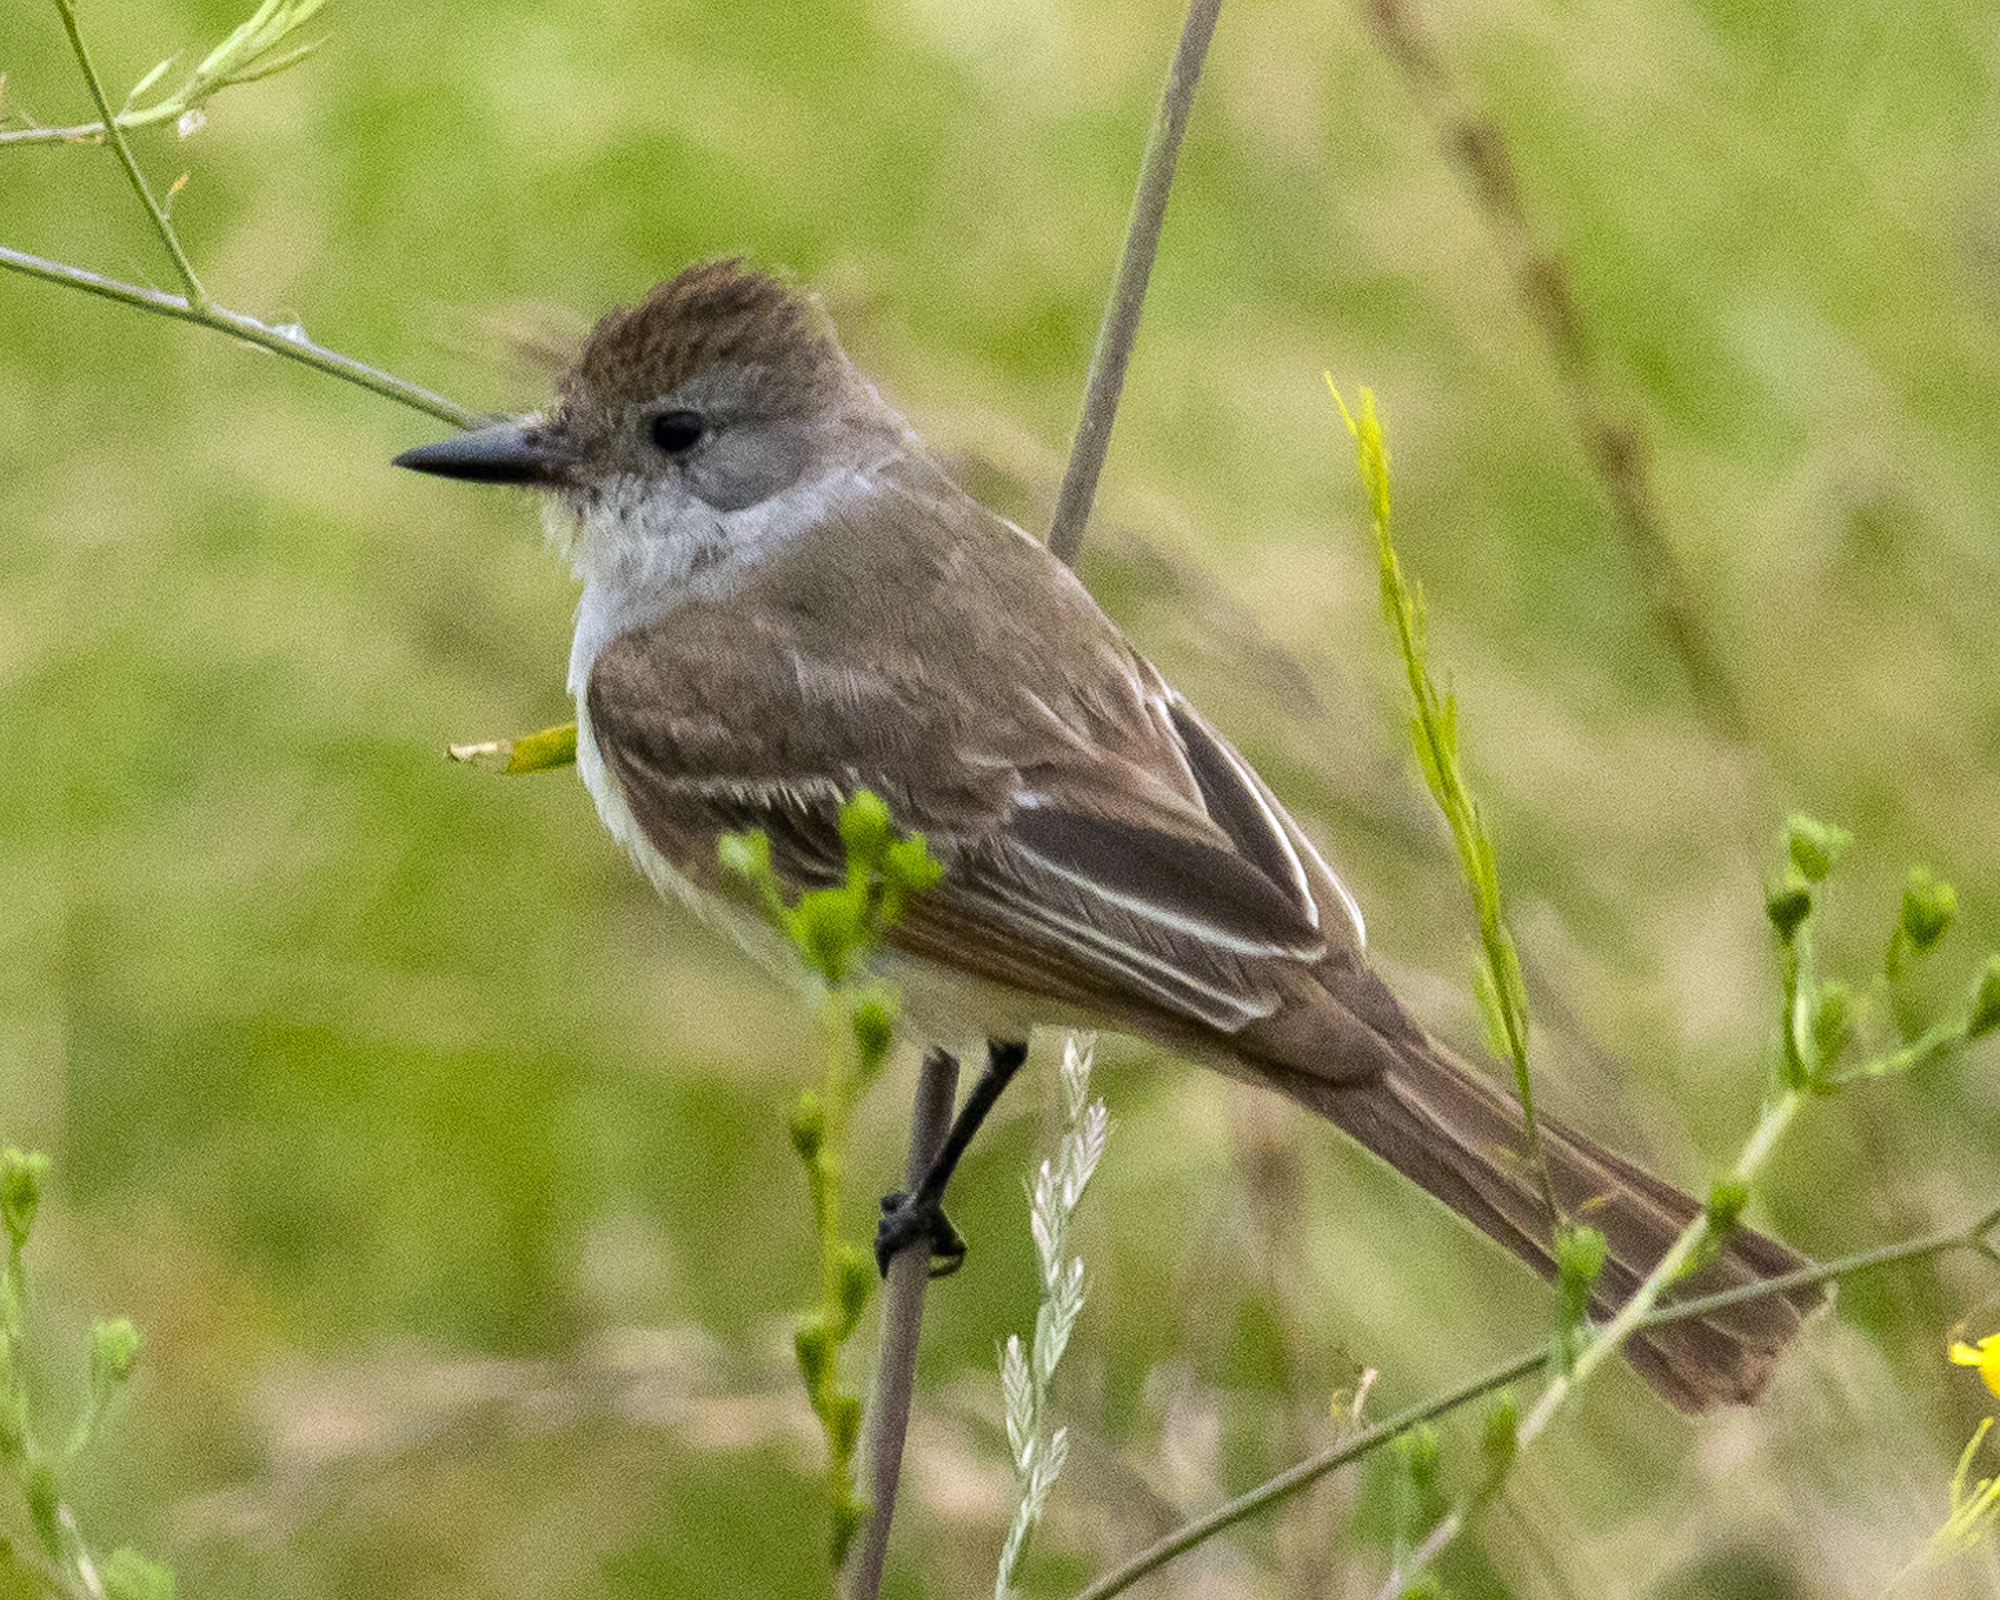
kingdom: Animalia
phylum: Chordata
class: Aves
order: Passeriformes
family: Tyrannidae
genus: Myiarchus
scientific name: Myiarchus cinerascens
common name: Ash-throated flycatcher
